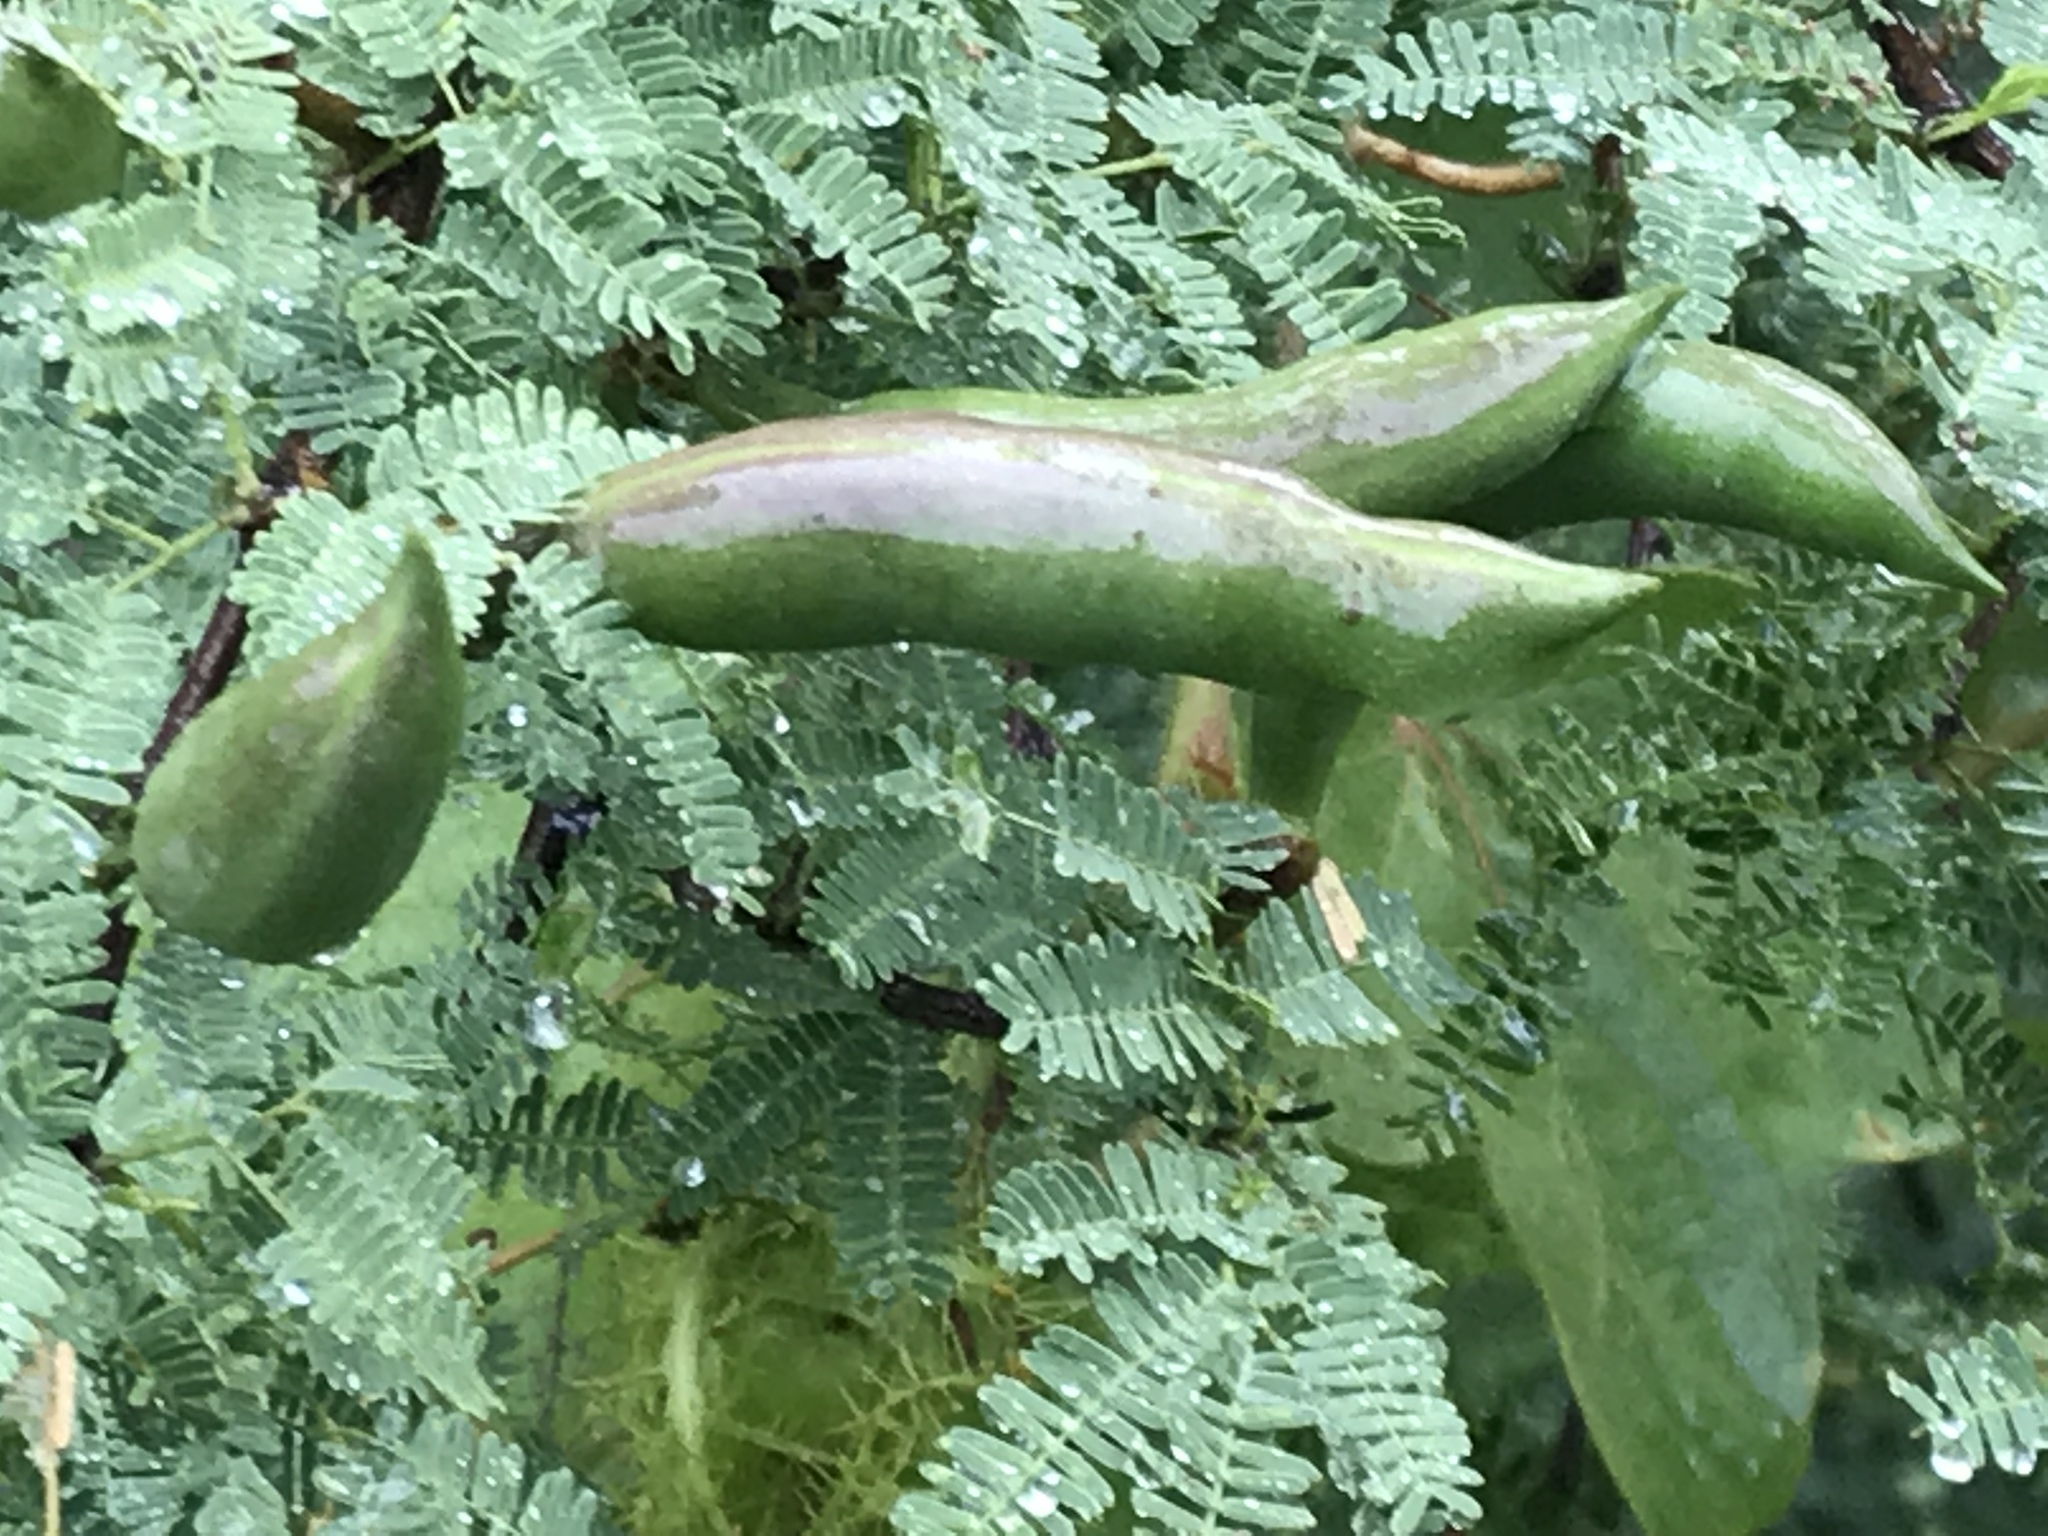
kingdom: Plantae
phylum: Tracheophyta
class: Magnoliopsida
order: Fabales
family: Fabaceae
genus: Vachellia
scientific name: Vachellia farnesiana
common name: Sweet acacia
